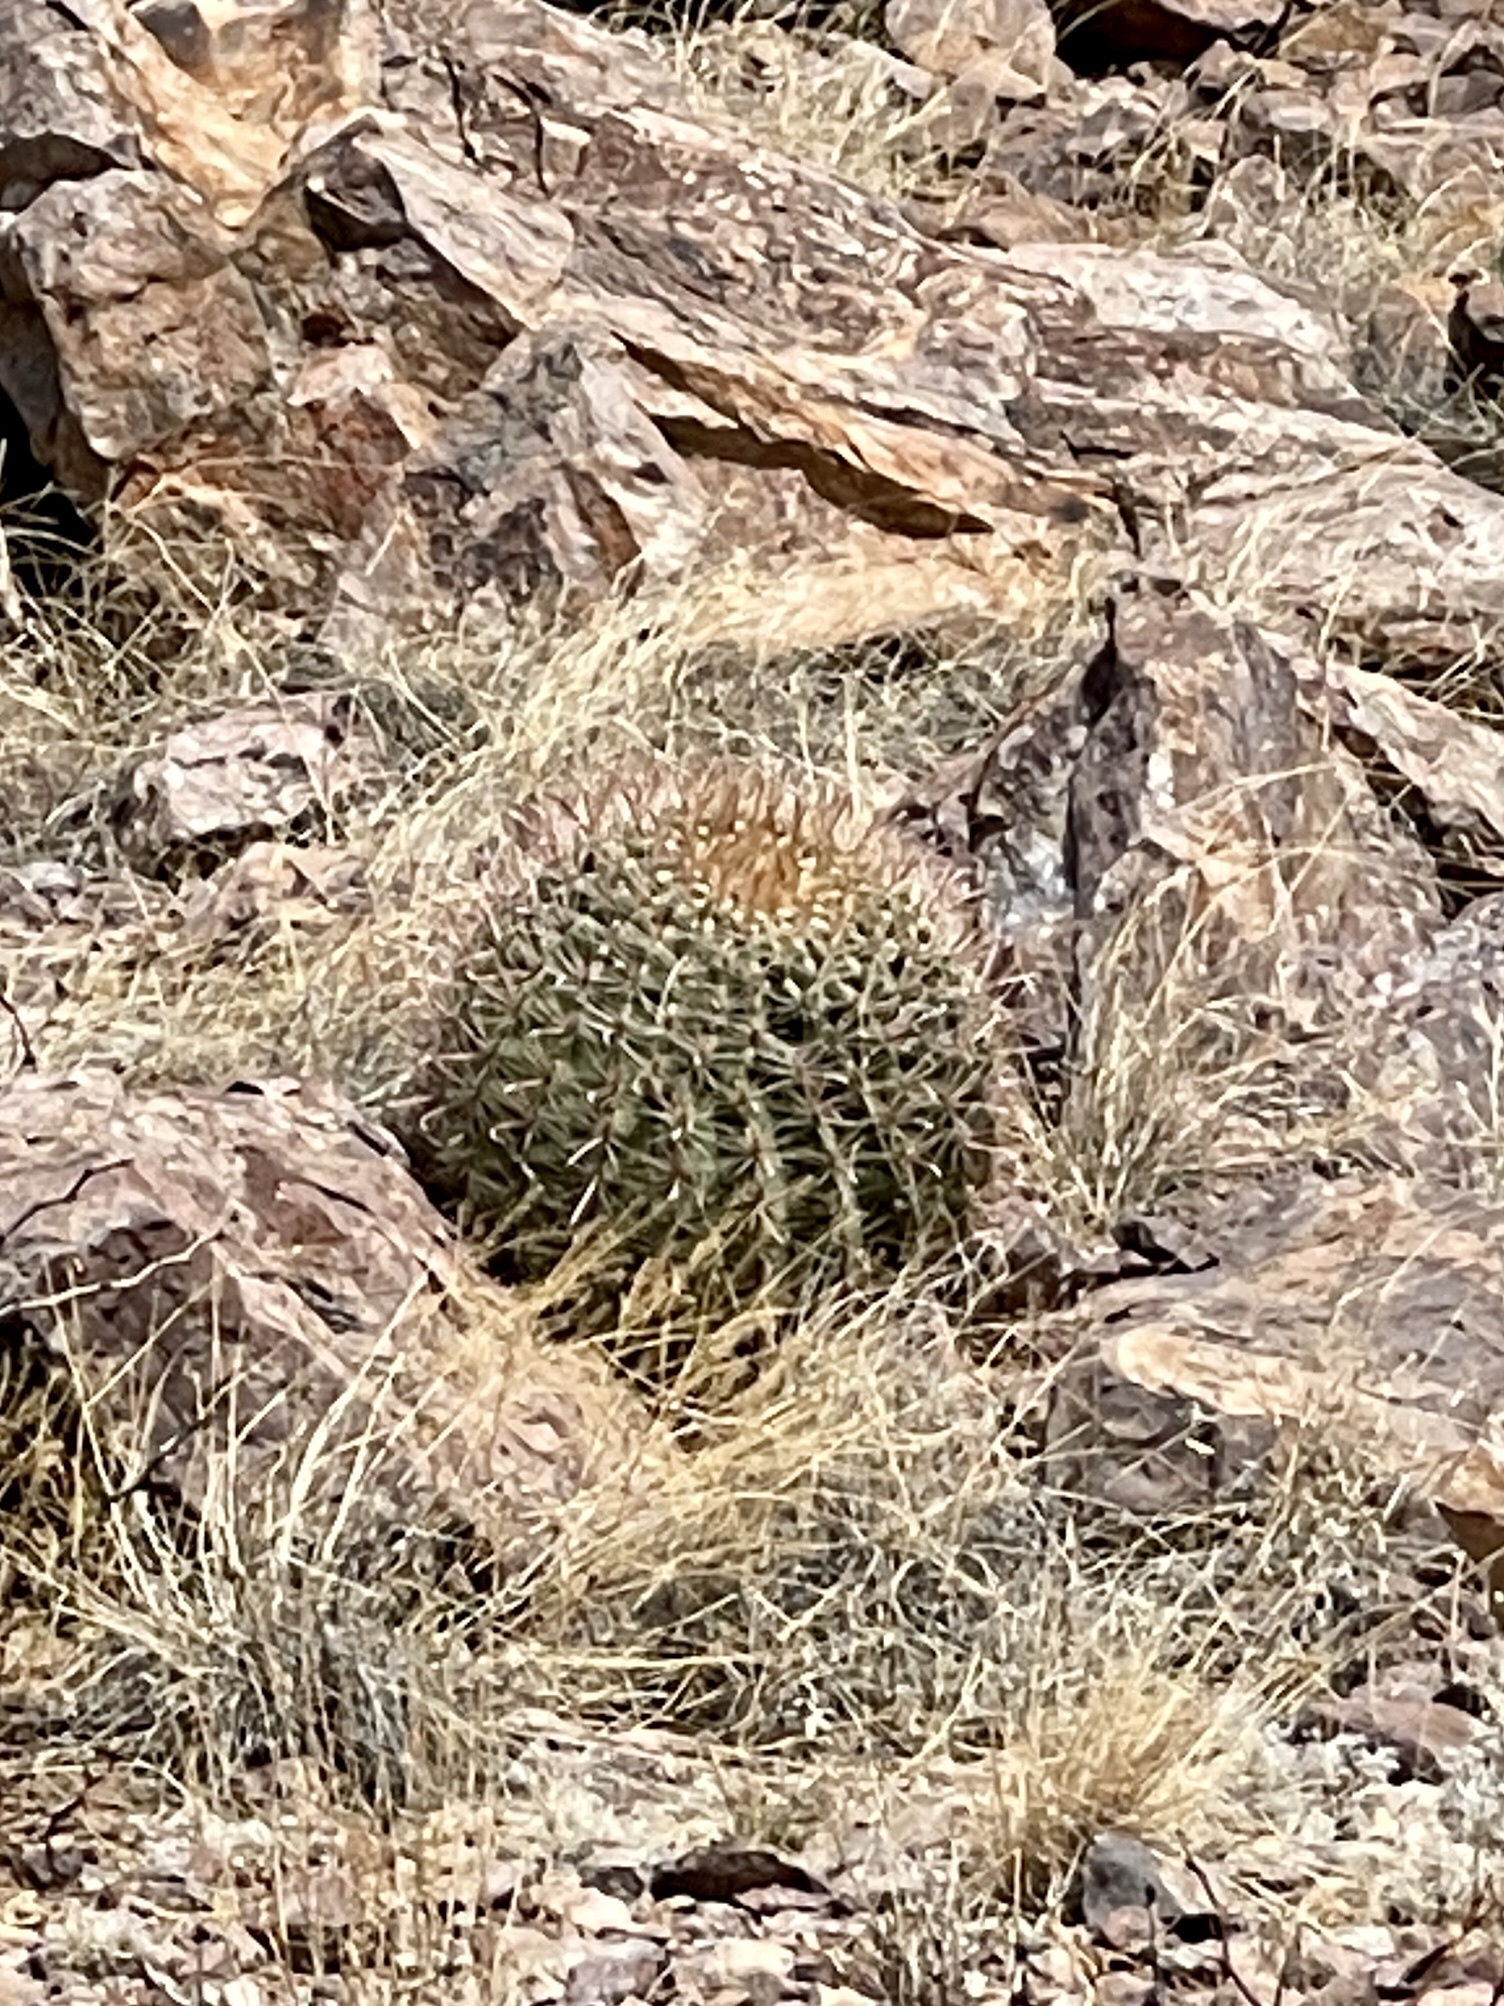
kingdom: Plantae
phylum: Tracheophyta
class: Magnoliopsida
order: Caryophyllales
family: Cactaceae
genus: Ferocactus
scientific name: Ferocactus wislizeni
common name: Candy barrel cactus
